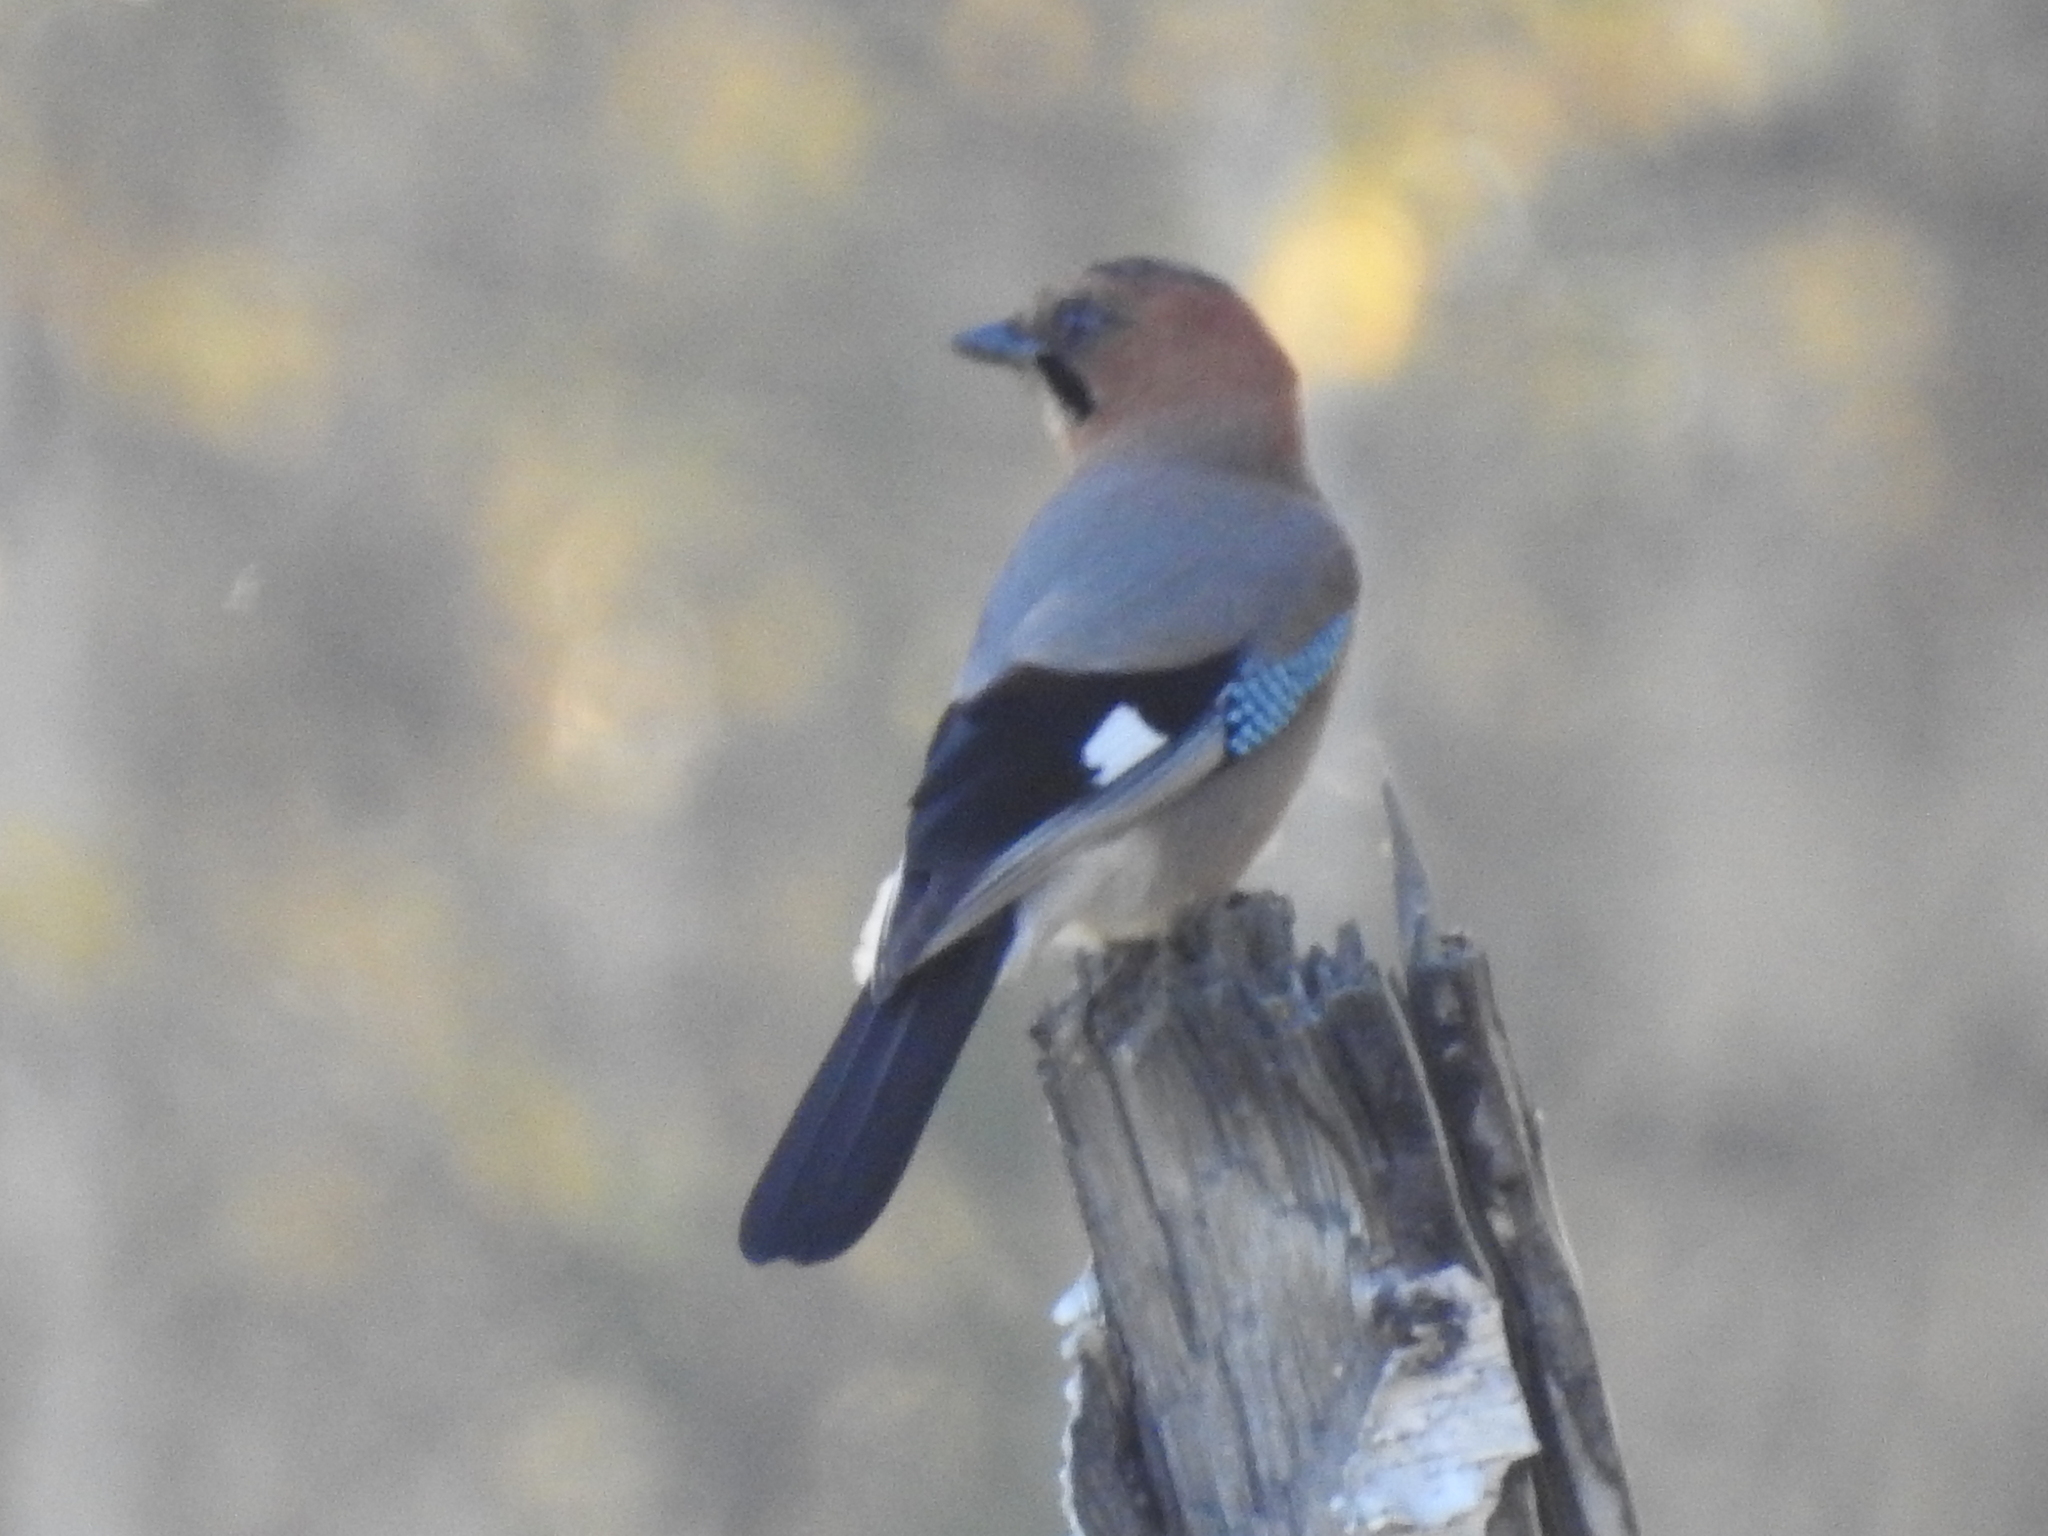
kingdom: Animalia
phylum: Chordata
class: Aves
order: Passeriformes
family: Corvidae
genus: Garrulus
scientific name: Garrulus glandarius
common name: Eurasian jay
